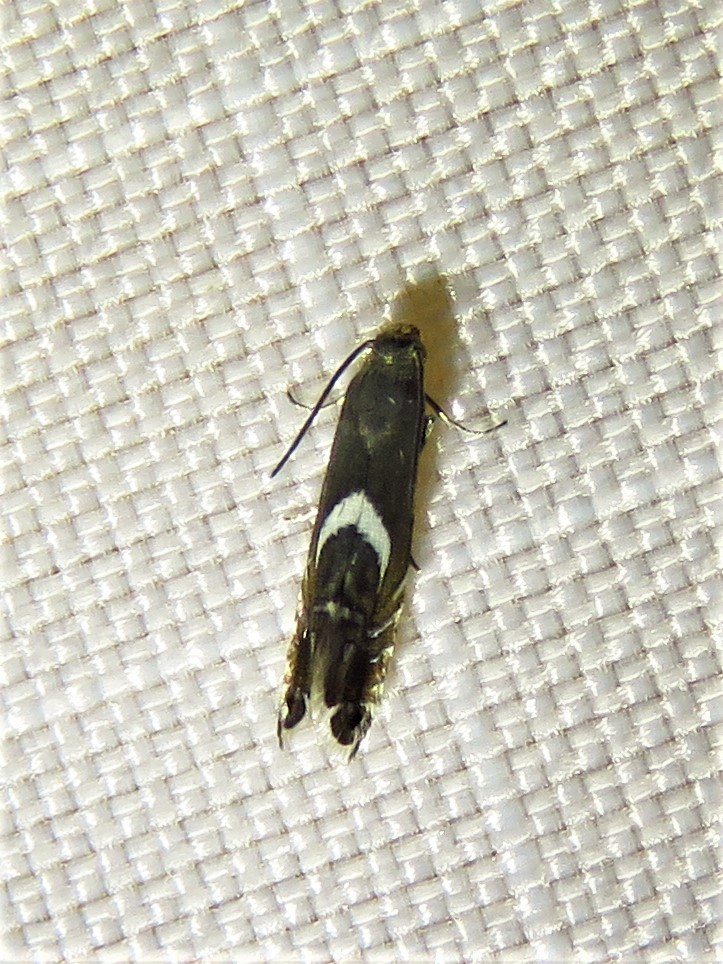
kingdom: Animalia
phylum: Arthropoda
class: Insecta
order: Lepidoptera
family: Glyphipterigidae
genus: Glyphipterix
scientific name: Glyphipterix Diploschizia impigritella
